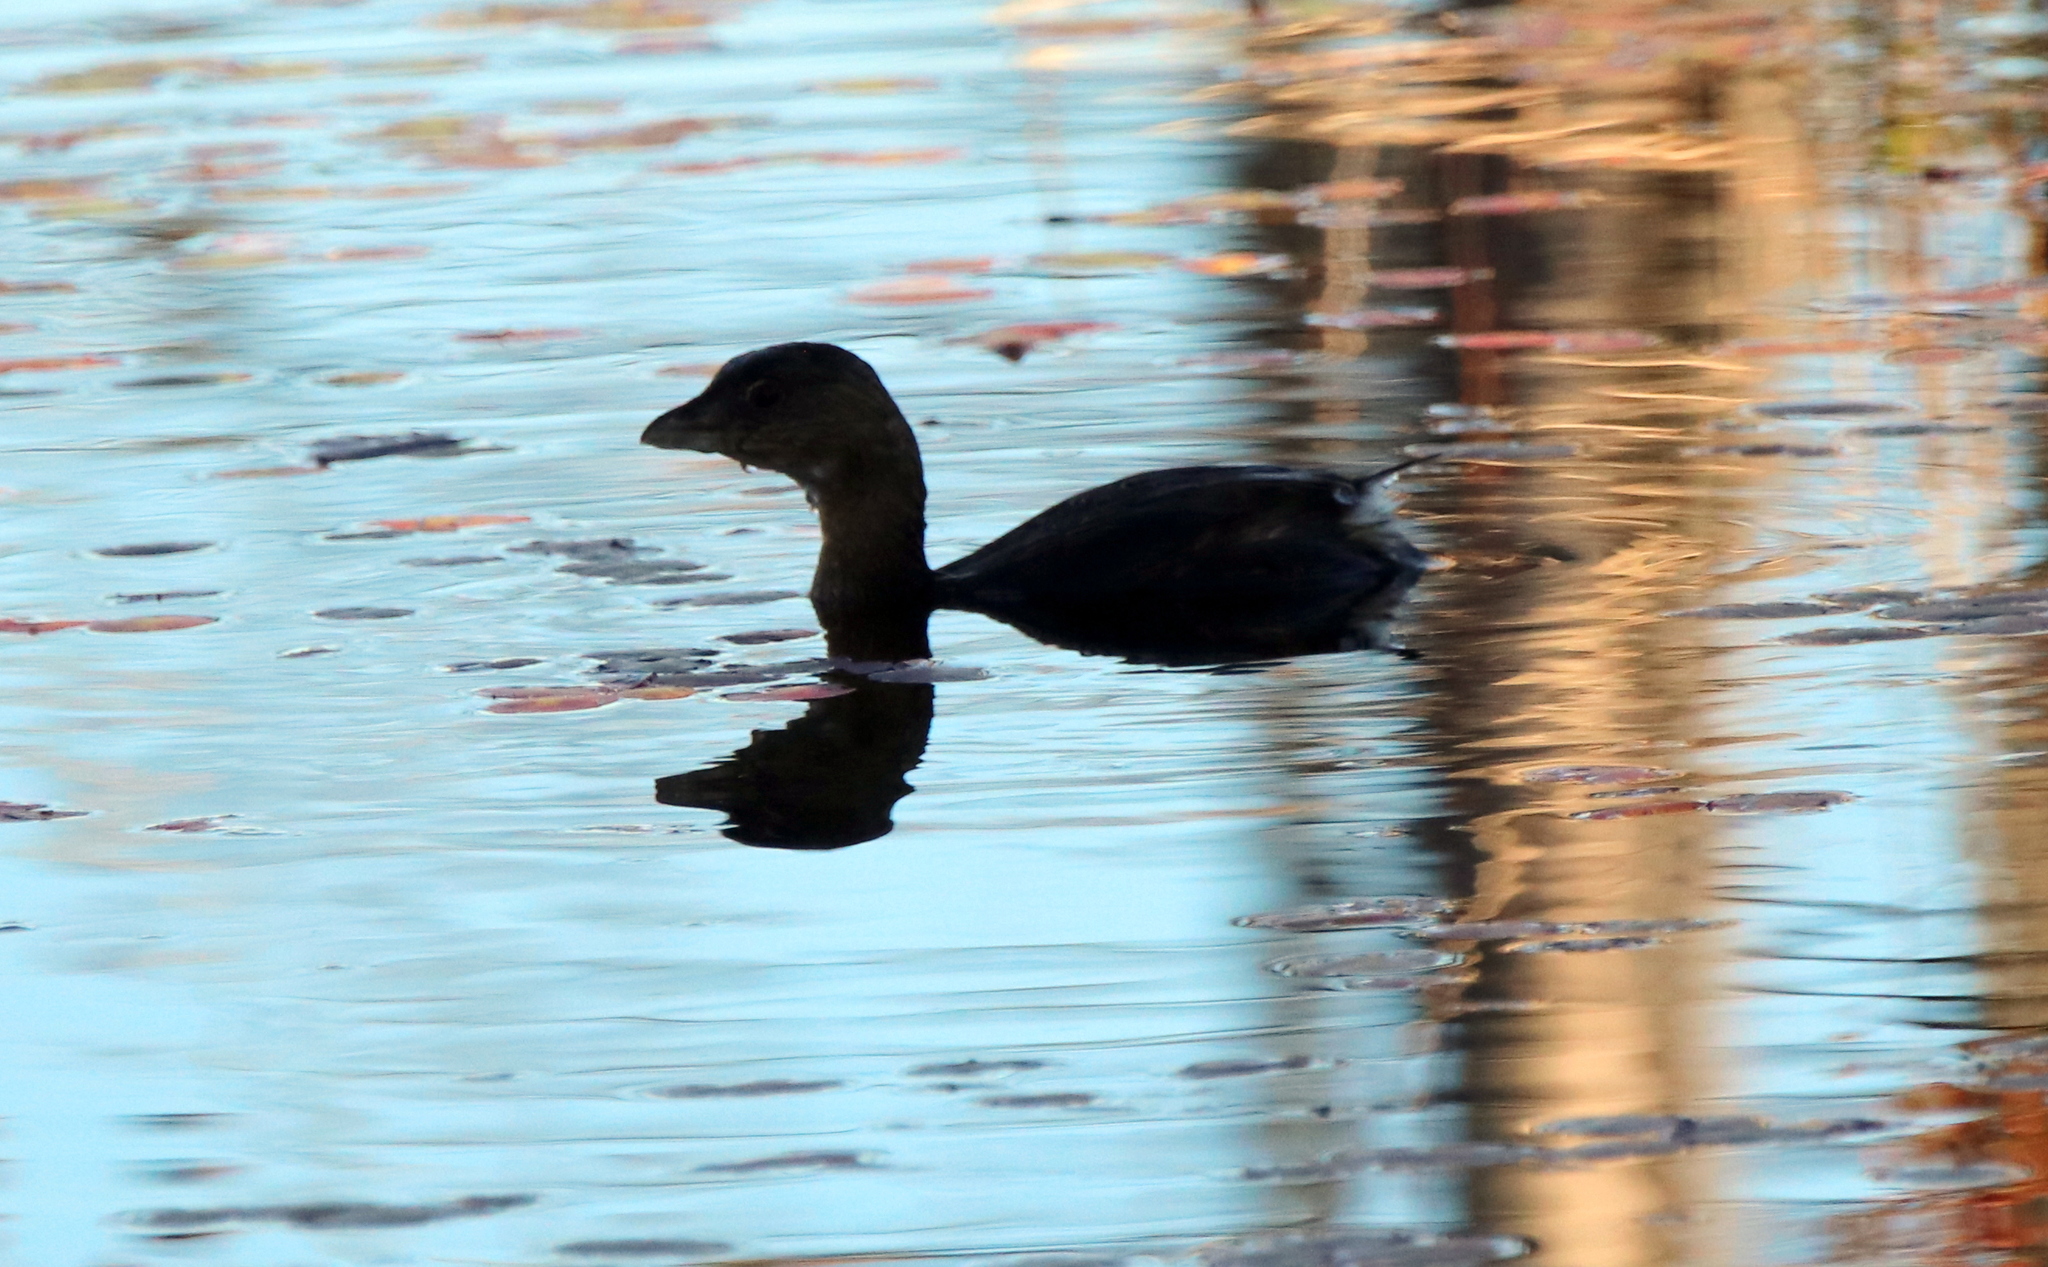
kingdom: Animalia
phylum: Chordata
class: Aves
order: Podicipediformes
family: Podicipedidae
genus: Podilymbus
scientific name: Podilymbus podiceps
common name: Pied-billed grebe
